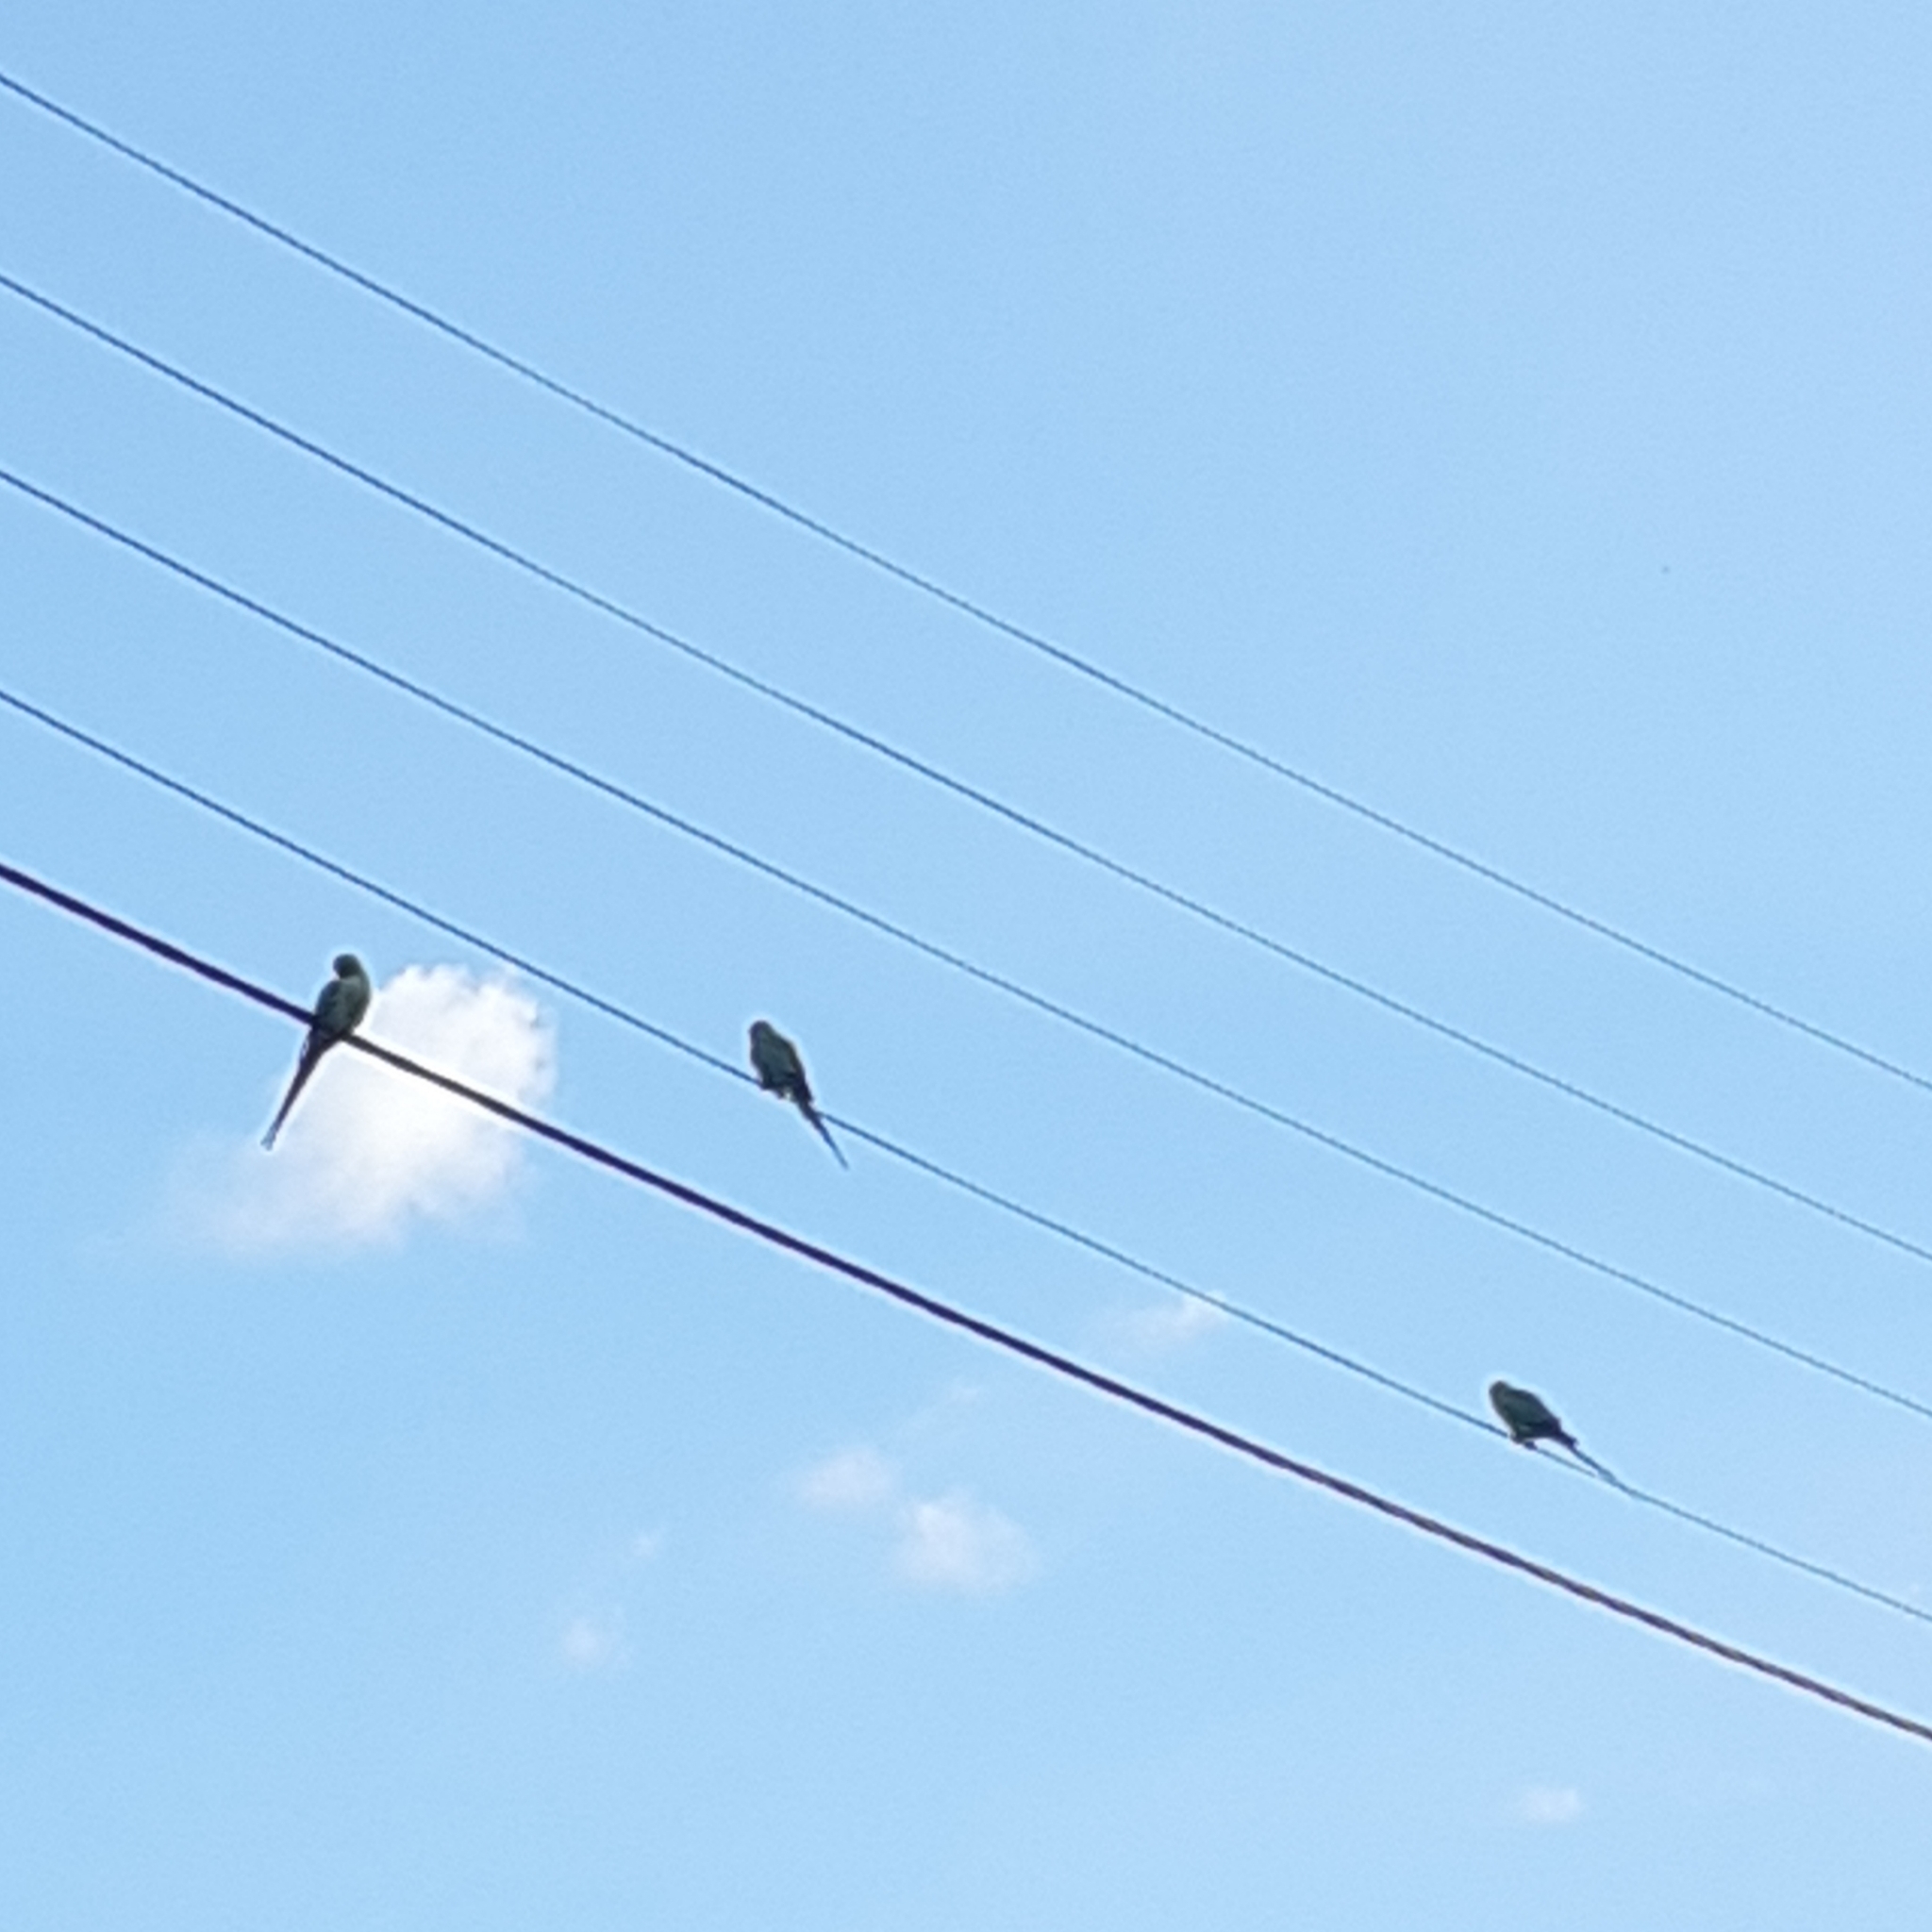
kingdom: Animalia
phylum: Chordata
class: Aves
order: Psittaciformes
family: Psittacidae
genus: Psittacula
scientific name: Psittacula krameri
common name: Rose-ringed parakeet
